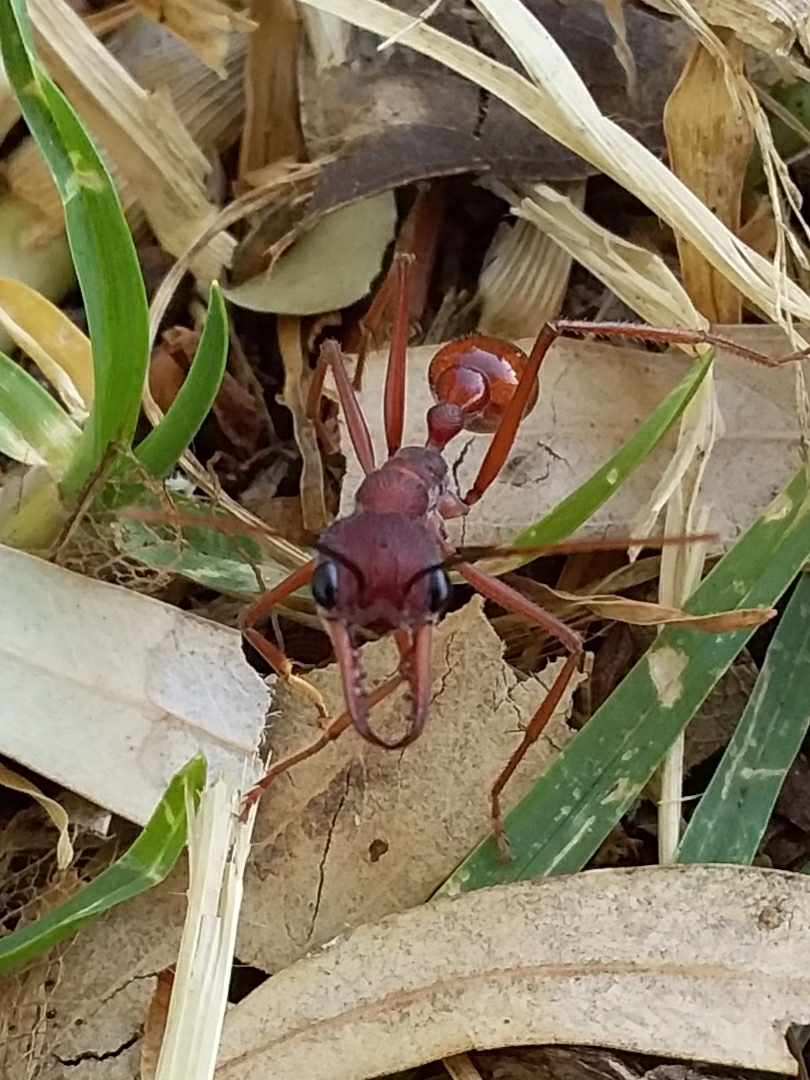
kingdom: Animalia
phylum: Arthropoda
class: Insecta
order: Hymenoptera
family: Formicidae
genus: Myrmecia
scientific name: Myrmecia nigriscapa
